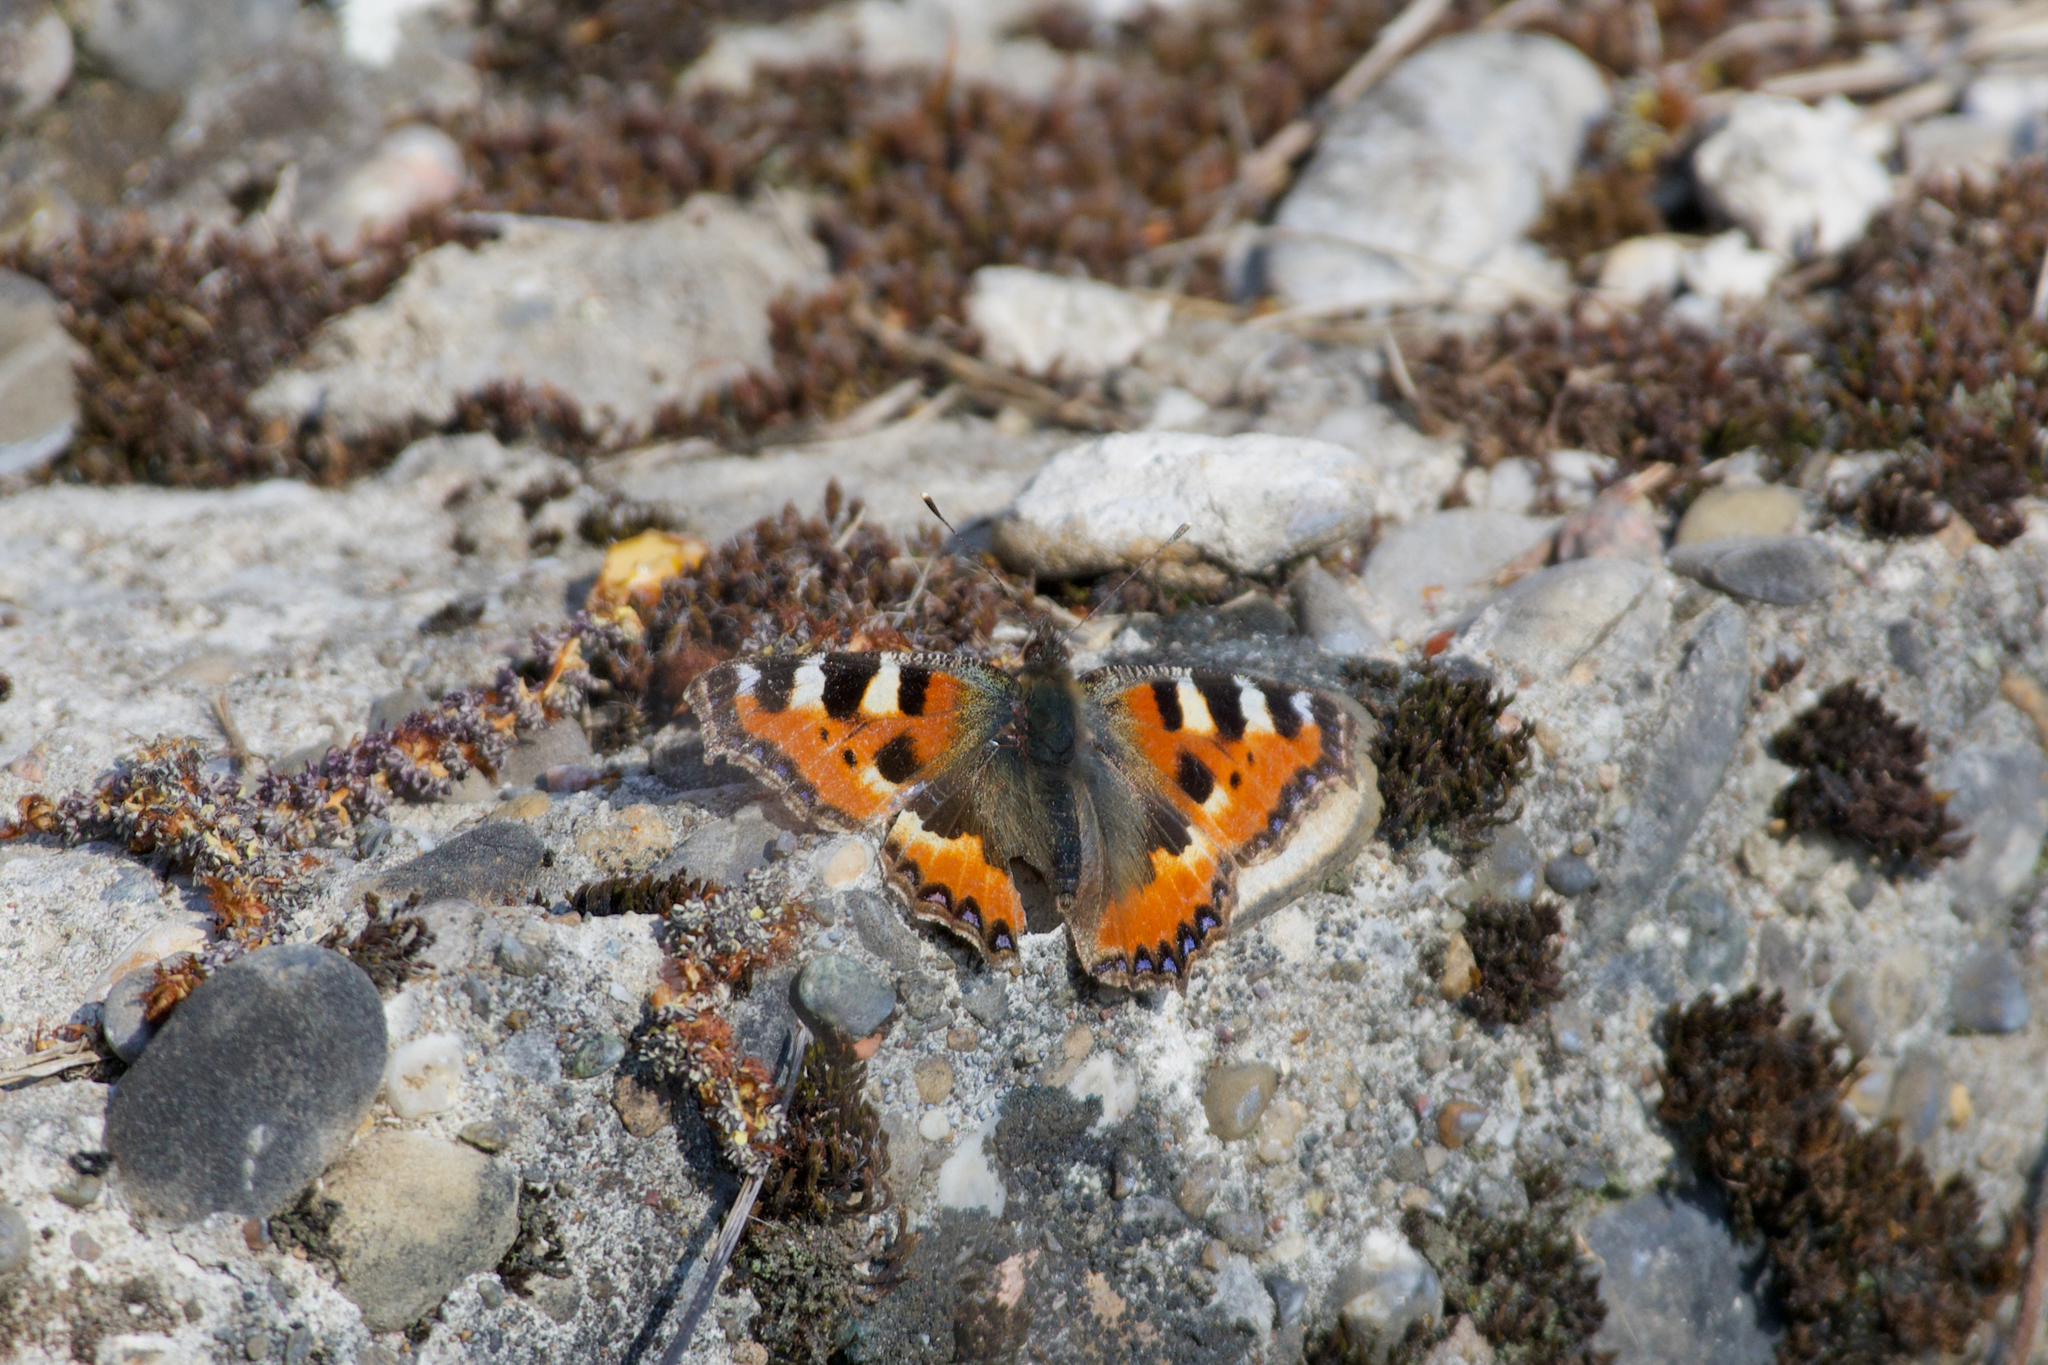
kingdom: Animalia
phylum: Arthropoda
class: Insecta
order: Lepidoptera
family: Nymphalidae
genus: Aglais
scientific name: Aglais urticae
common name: Small tortoiseshell
